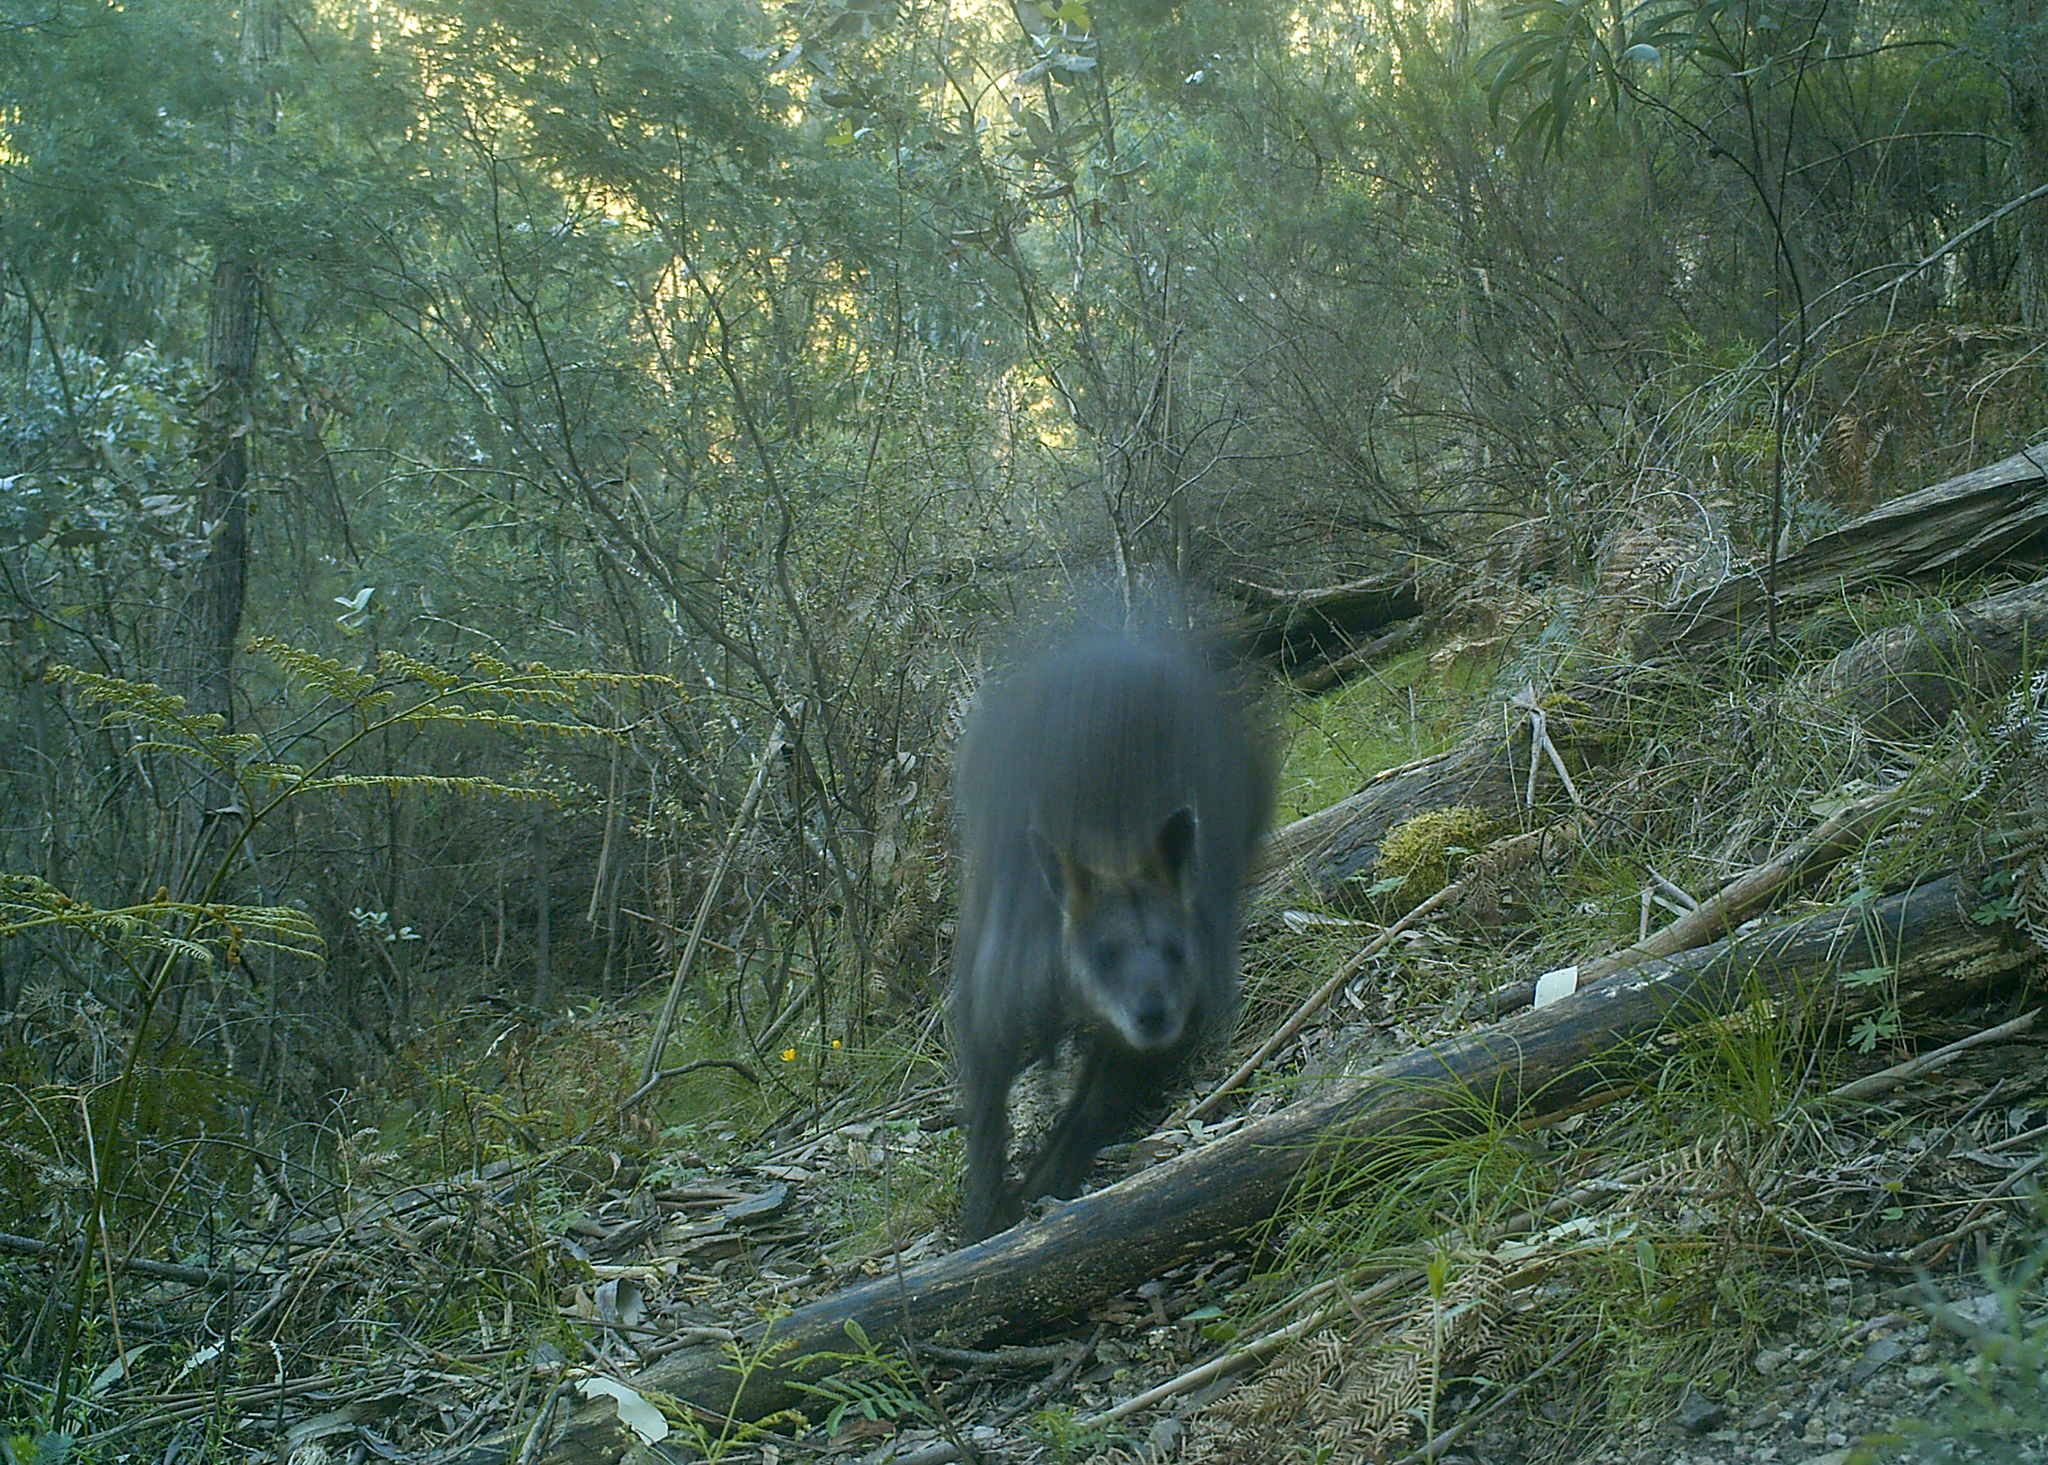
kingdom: Animalia
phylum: Chordata
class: Mammalia
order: Diprotodontia
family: Macropodidae
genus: Wallabia
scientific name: Wallabia bicolor
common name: Swamp wallaby
